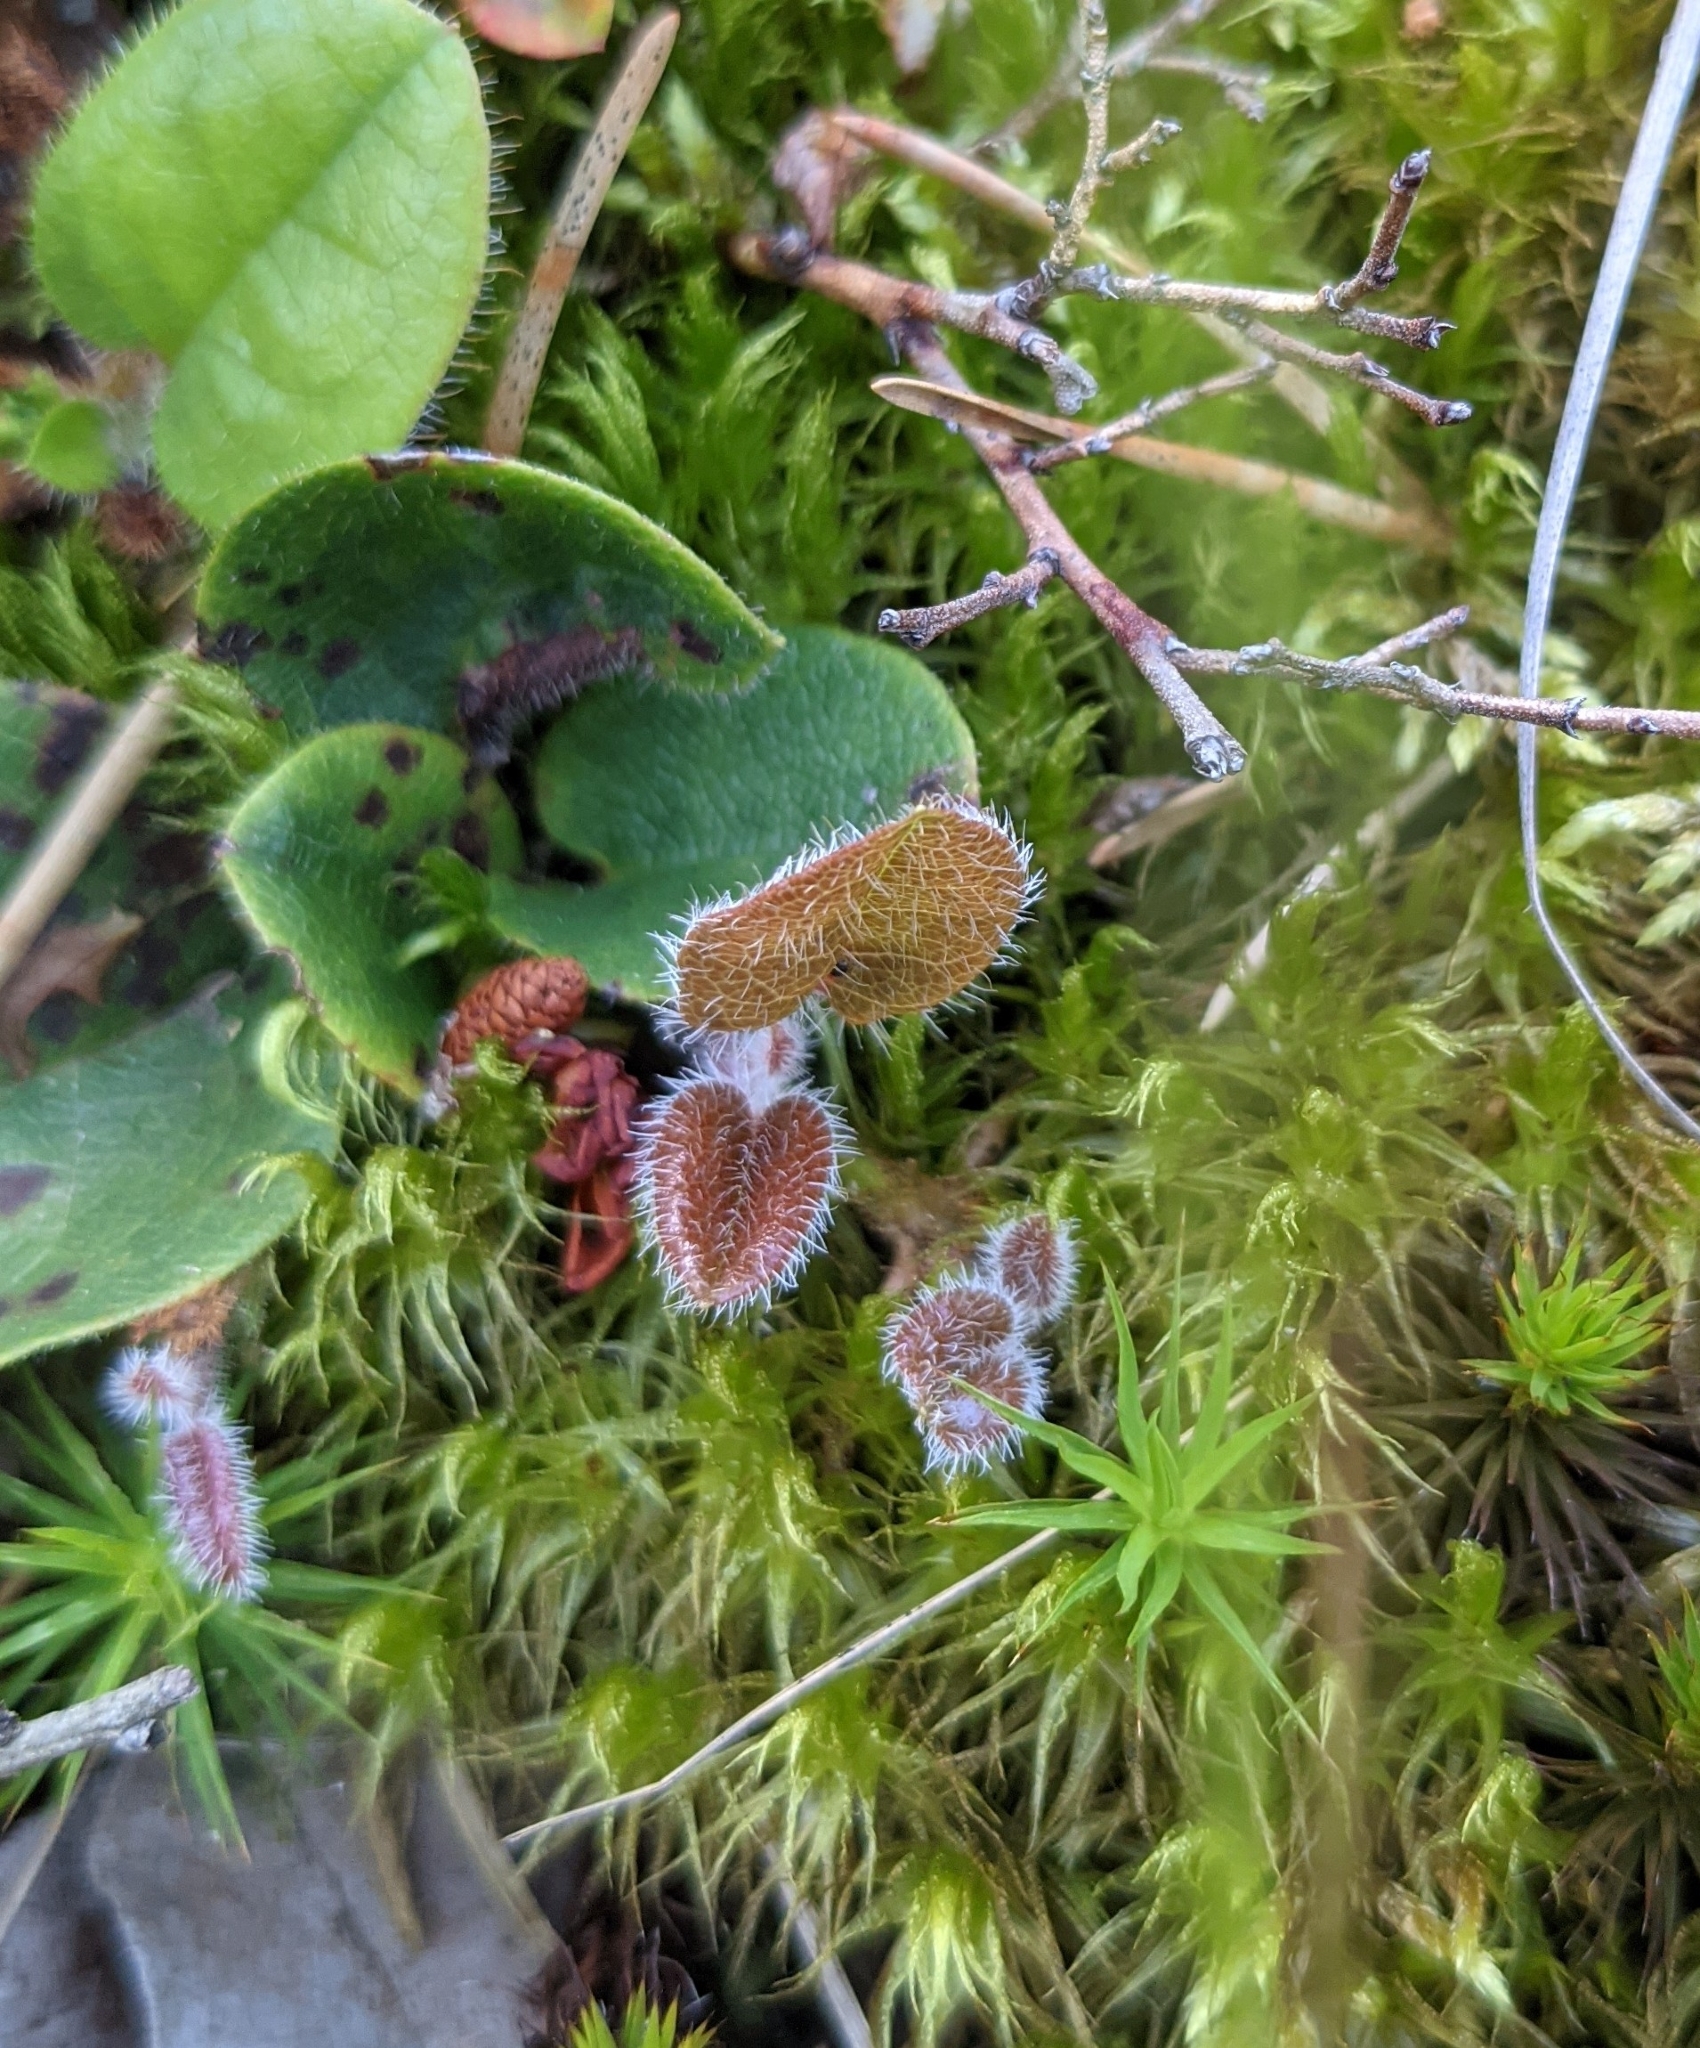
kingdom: Plantae
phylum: Tracheophyta
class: Magnoliopsida
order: Ericales
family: Ericaceae
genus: Epigaea
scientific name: Epigaea repens
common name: Gravelroot
